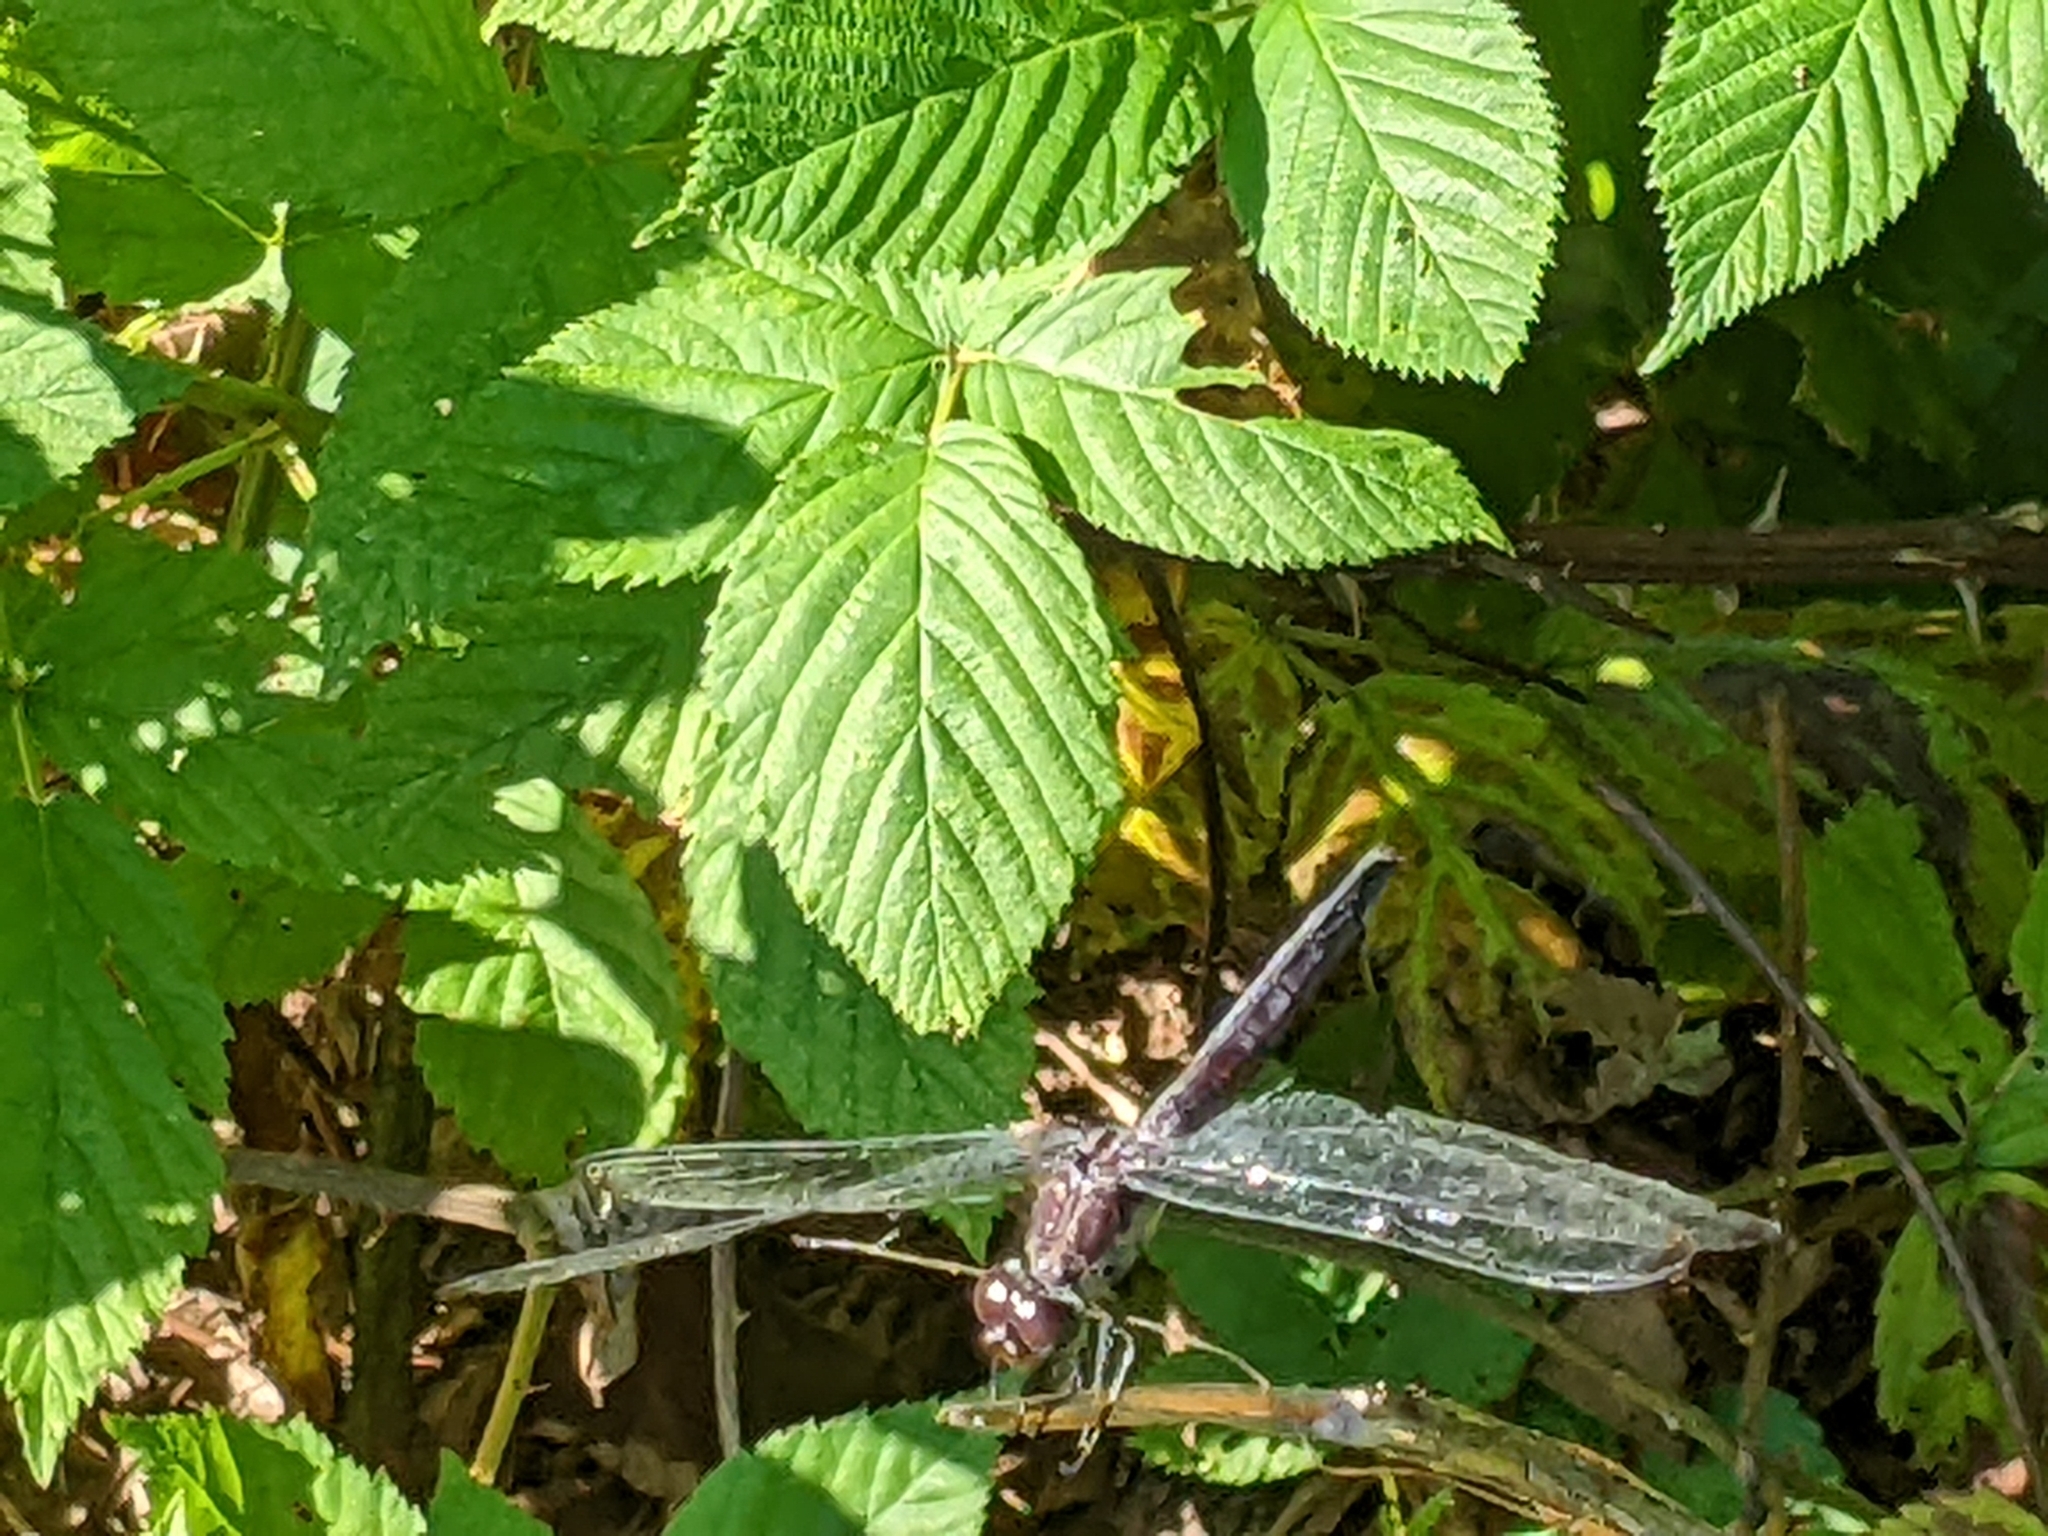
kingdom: Animalia
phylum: Arthropoda
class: Insecta
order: Odonata
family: Libellulidae
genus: Libellula
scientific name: Libellula incesta
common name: Slaty skimmer
